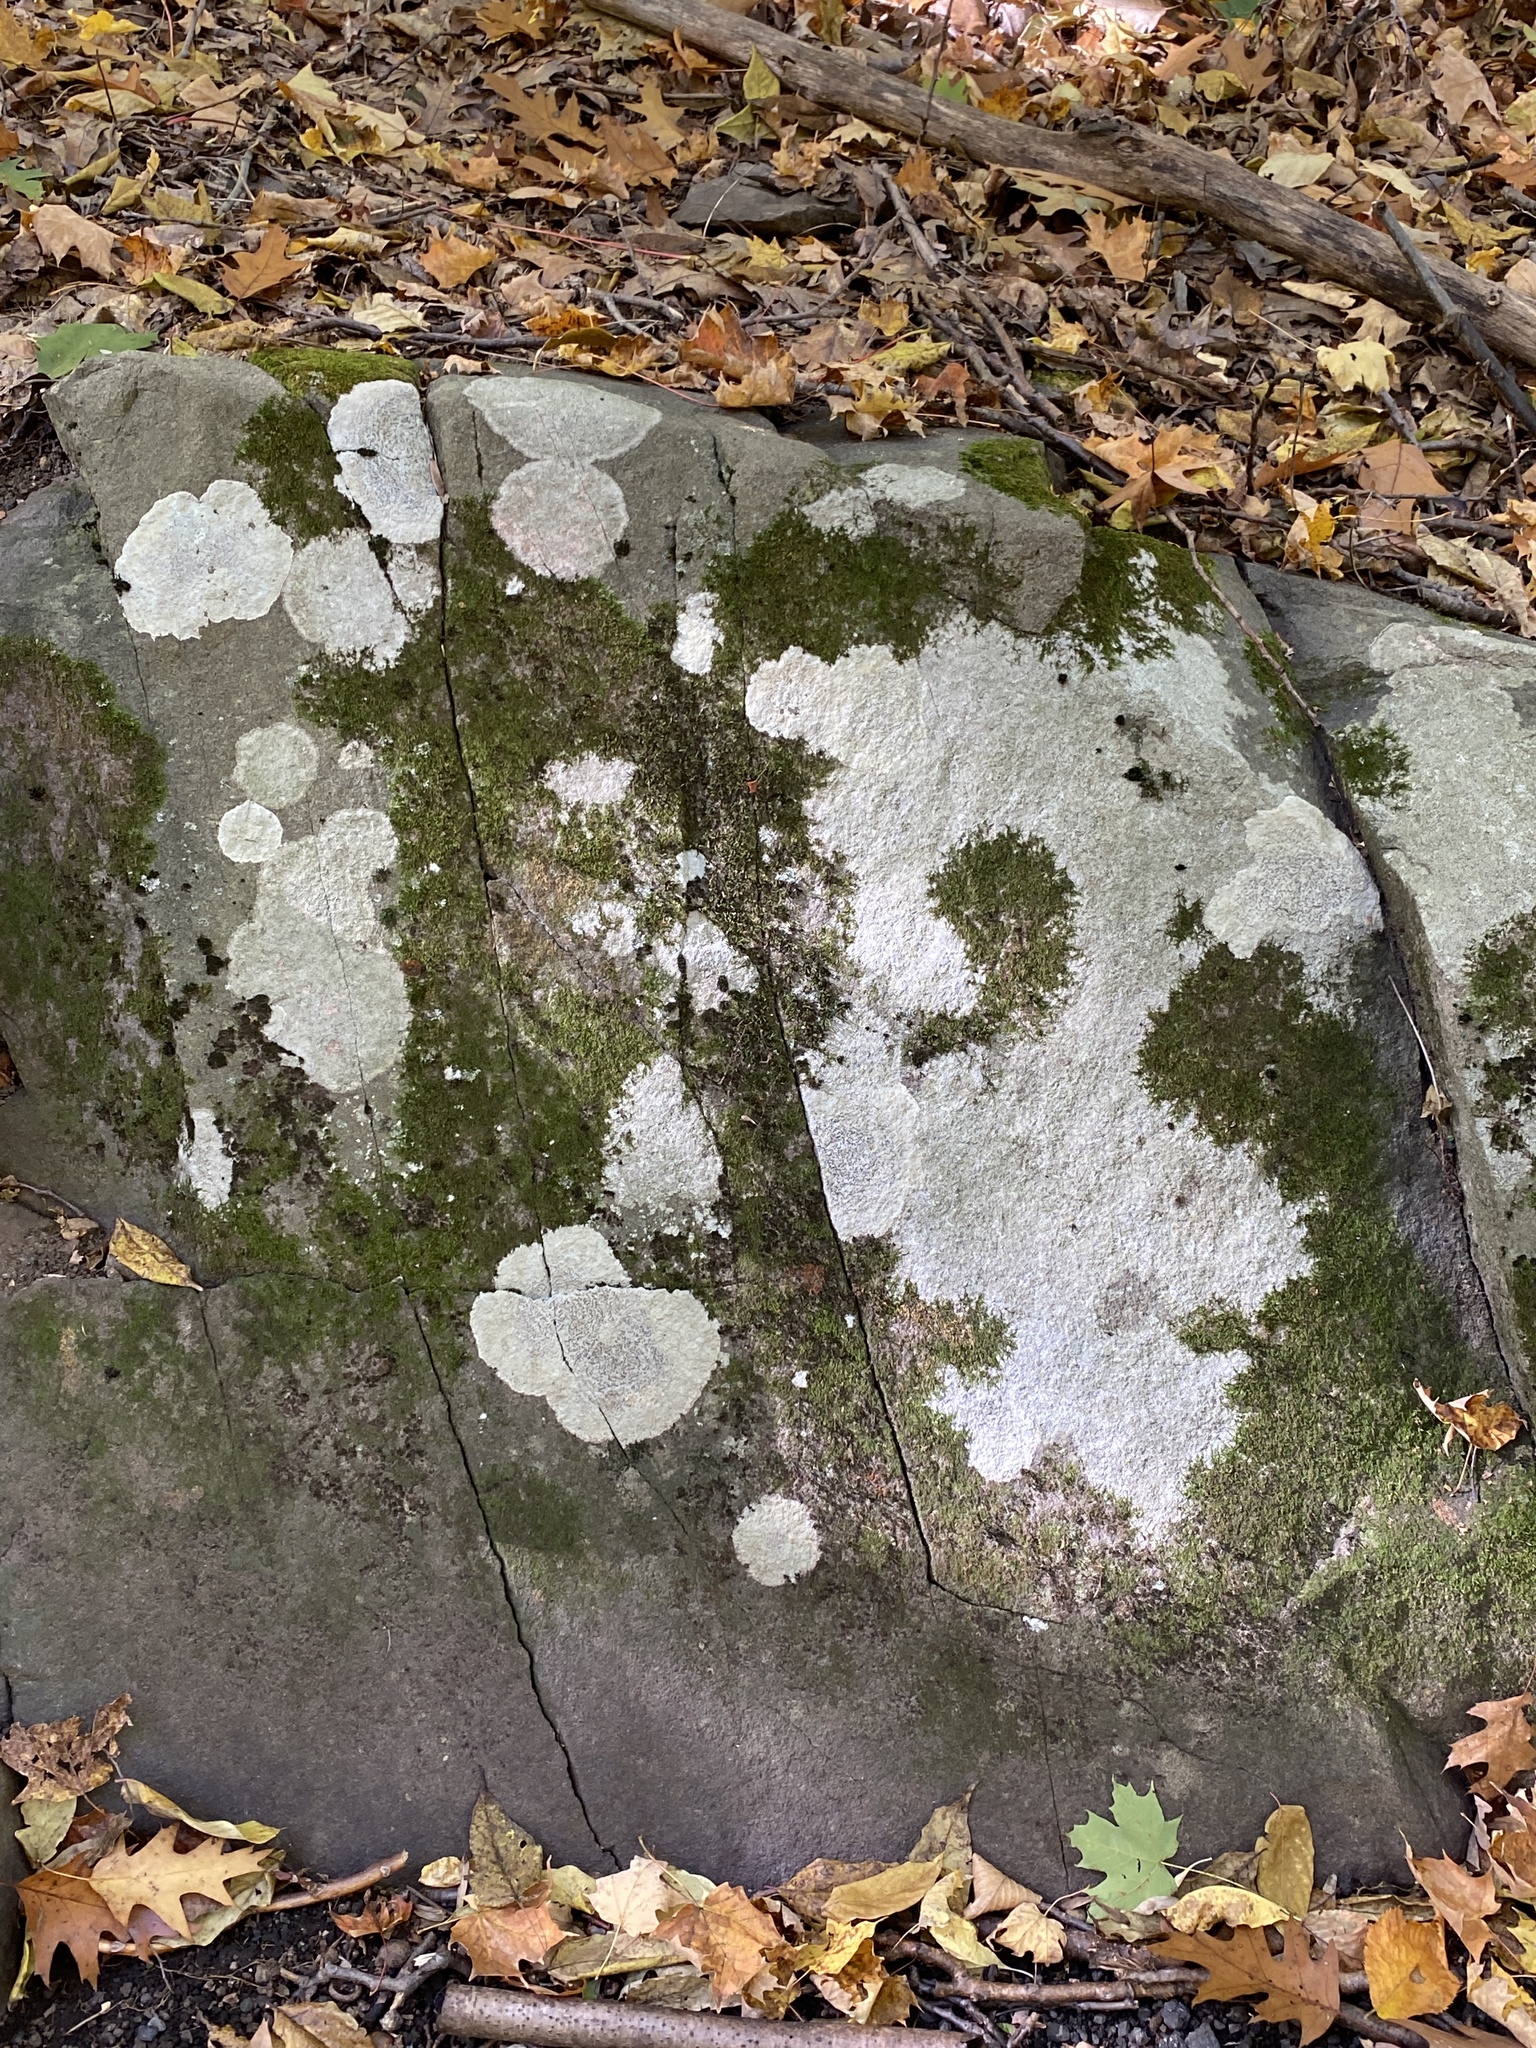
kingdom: Fungi
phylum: Ascomycota
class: Lecanoromycetes
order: Lecideales
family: Lecideaceae
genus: Porpidia
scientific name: Porpidia albocaerulescens
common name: Smokey-eyed boulder lichen
